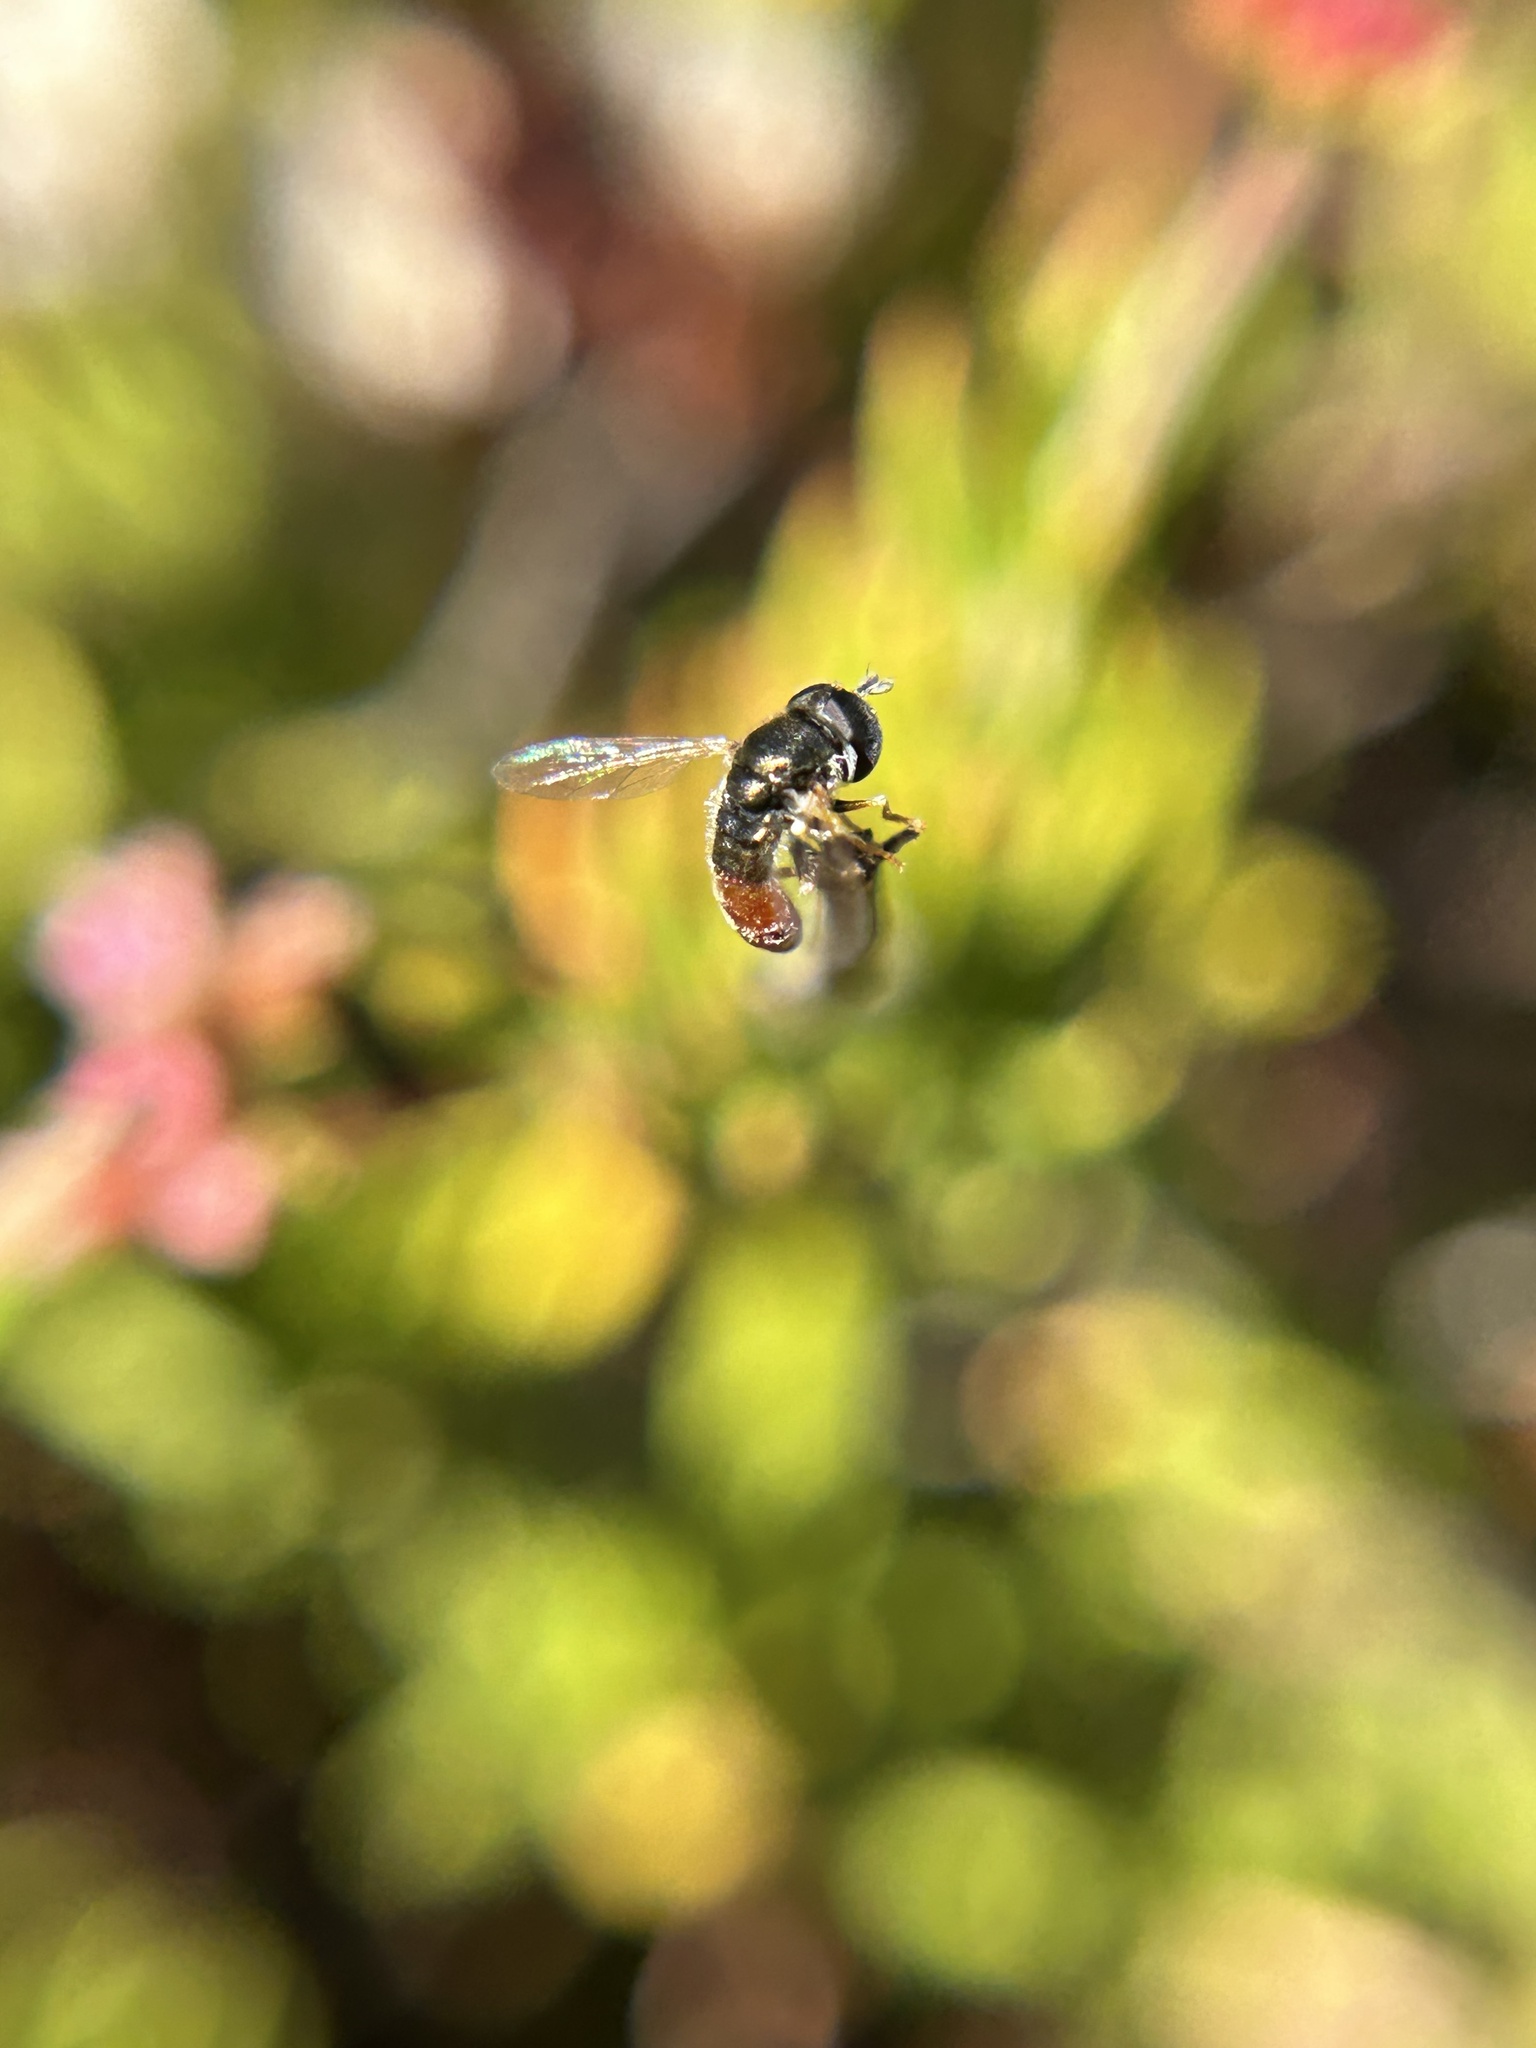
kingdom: Animalia
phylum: Arthropoda
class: Insecta
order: Diptera
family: Syrphidae
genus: Paragus
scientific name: Paragus haemorrhous
